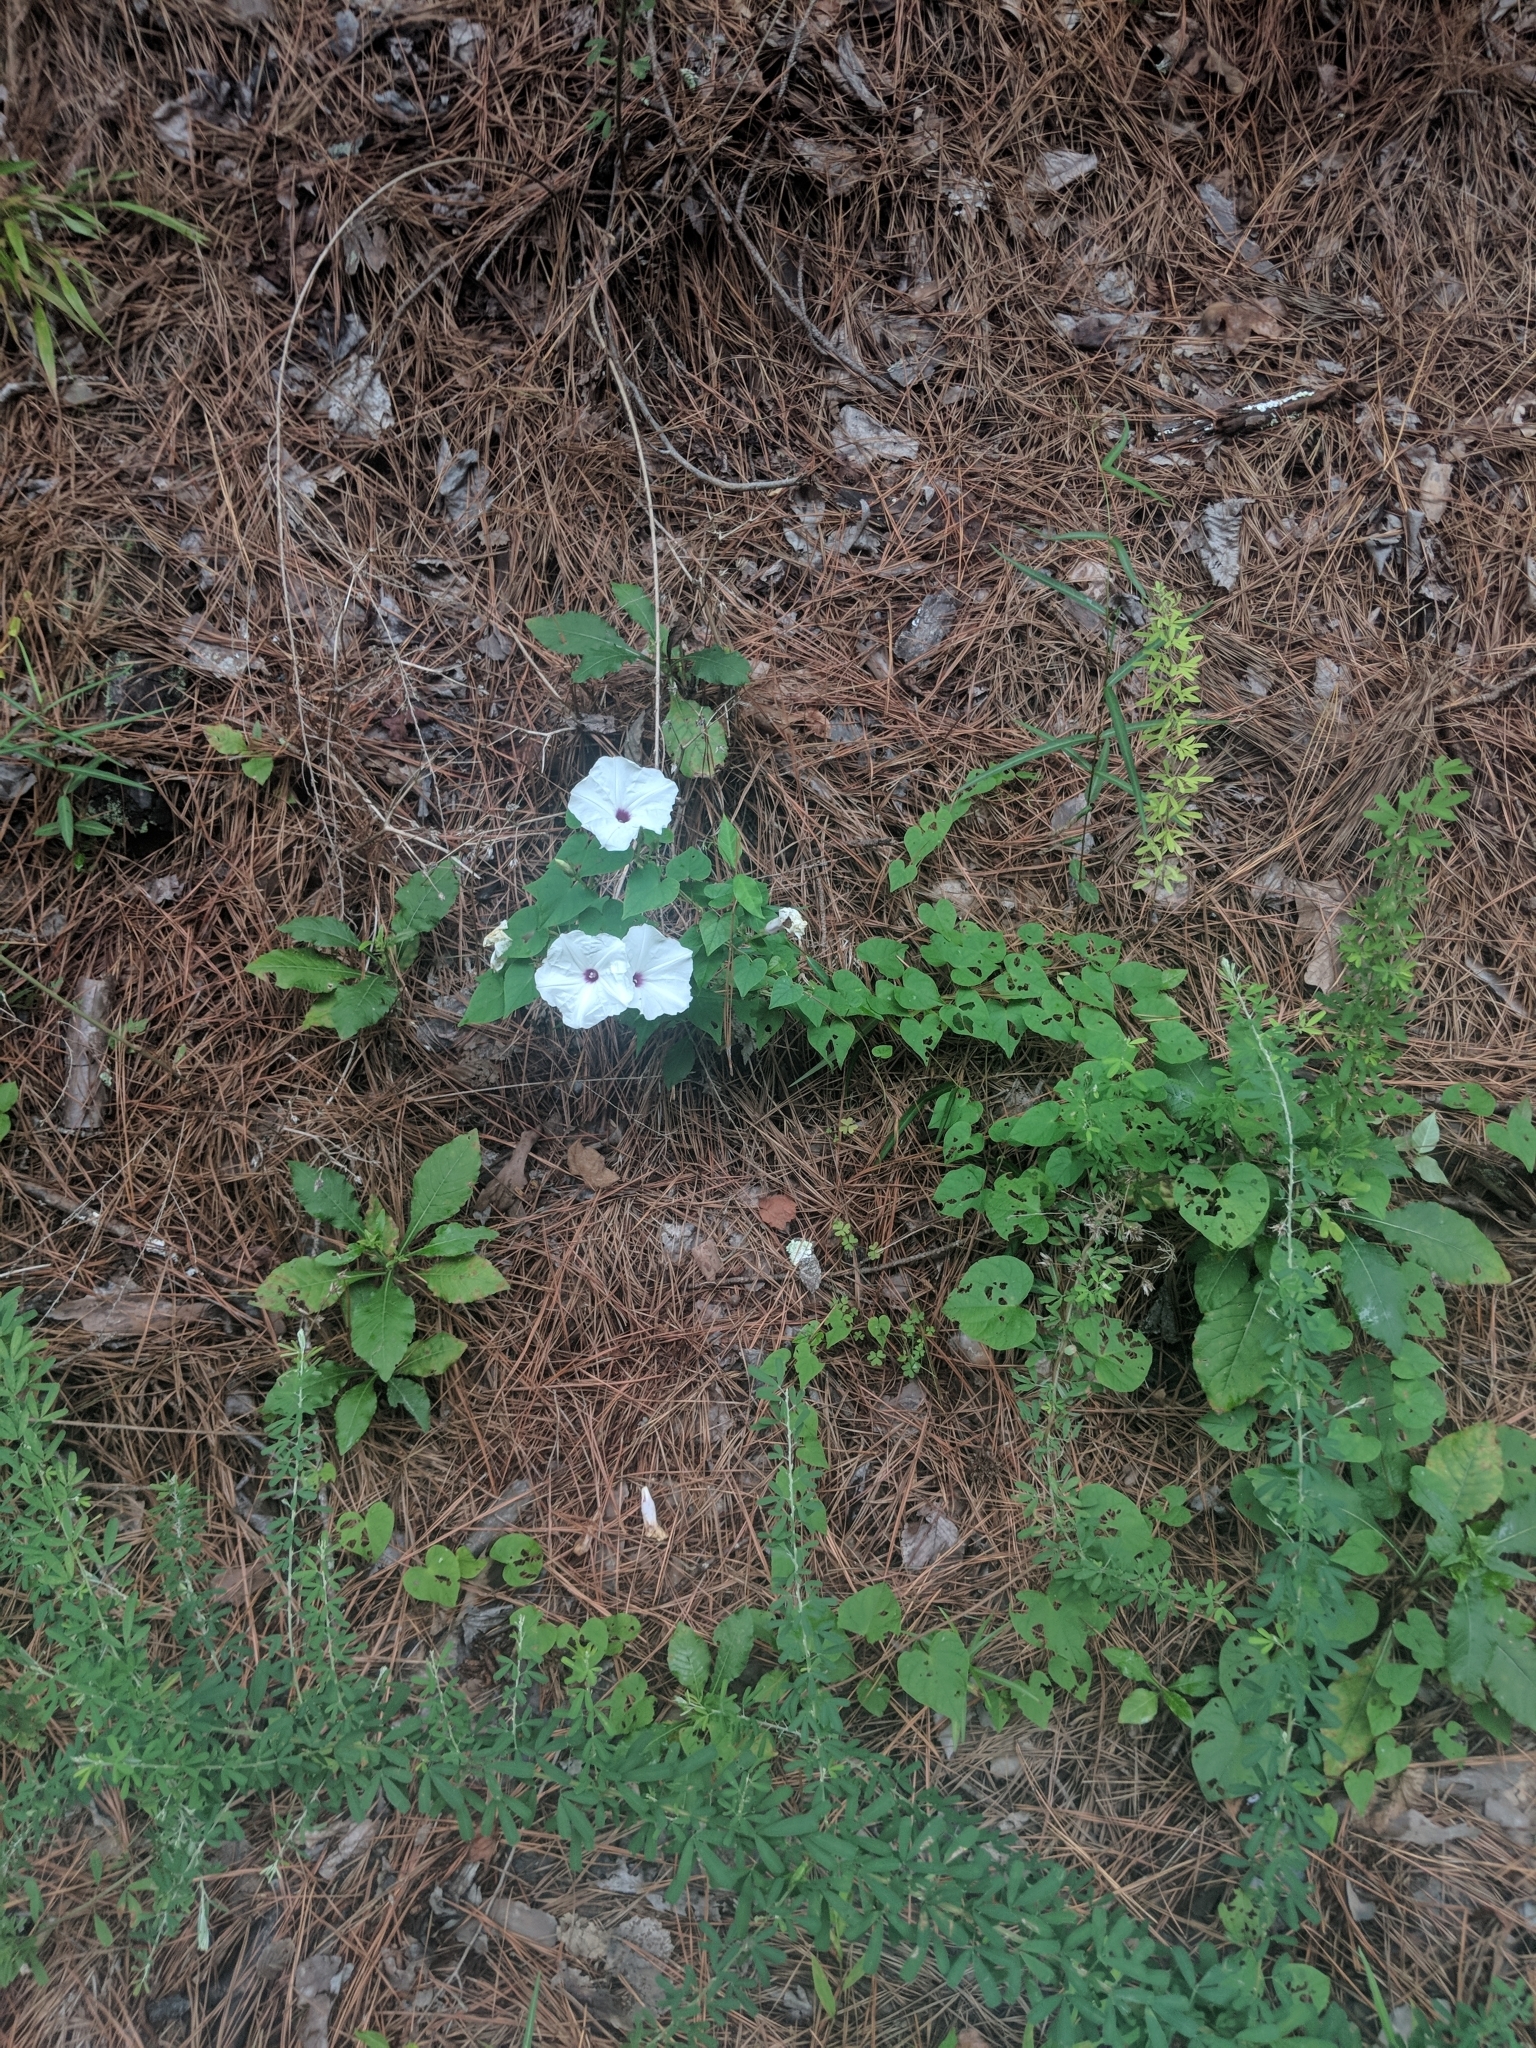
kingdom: Plantae
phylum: Tracheophyta
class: Magnoliopsida
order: Solanales
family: Convolvulaceae
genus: Ipomoea
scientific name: Ipomoea pandurata
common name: Man-of-the-earth
